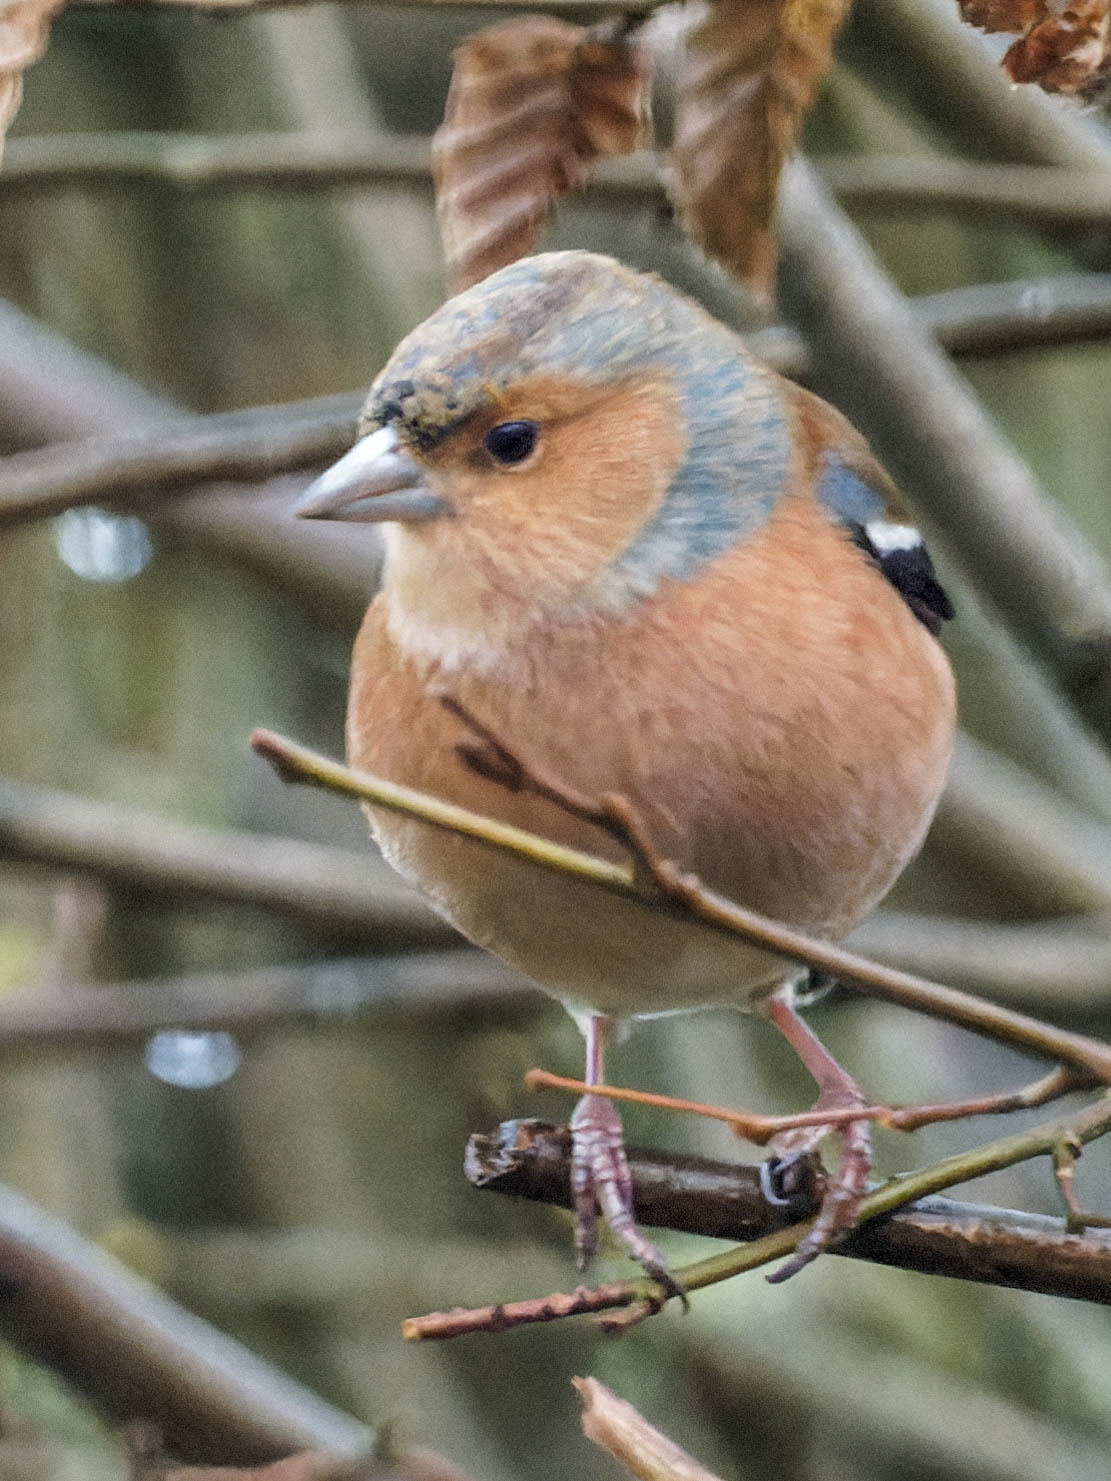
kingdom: Animalia
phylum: Chordata
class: Aves
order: Passeriformes
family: Fringillidae
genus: Fringilla
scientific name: Fringilla coelebs
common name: Common chaffinch
